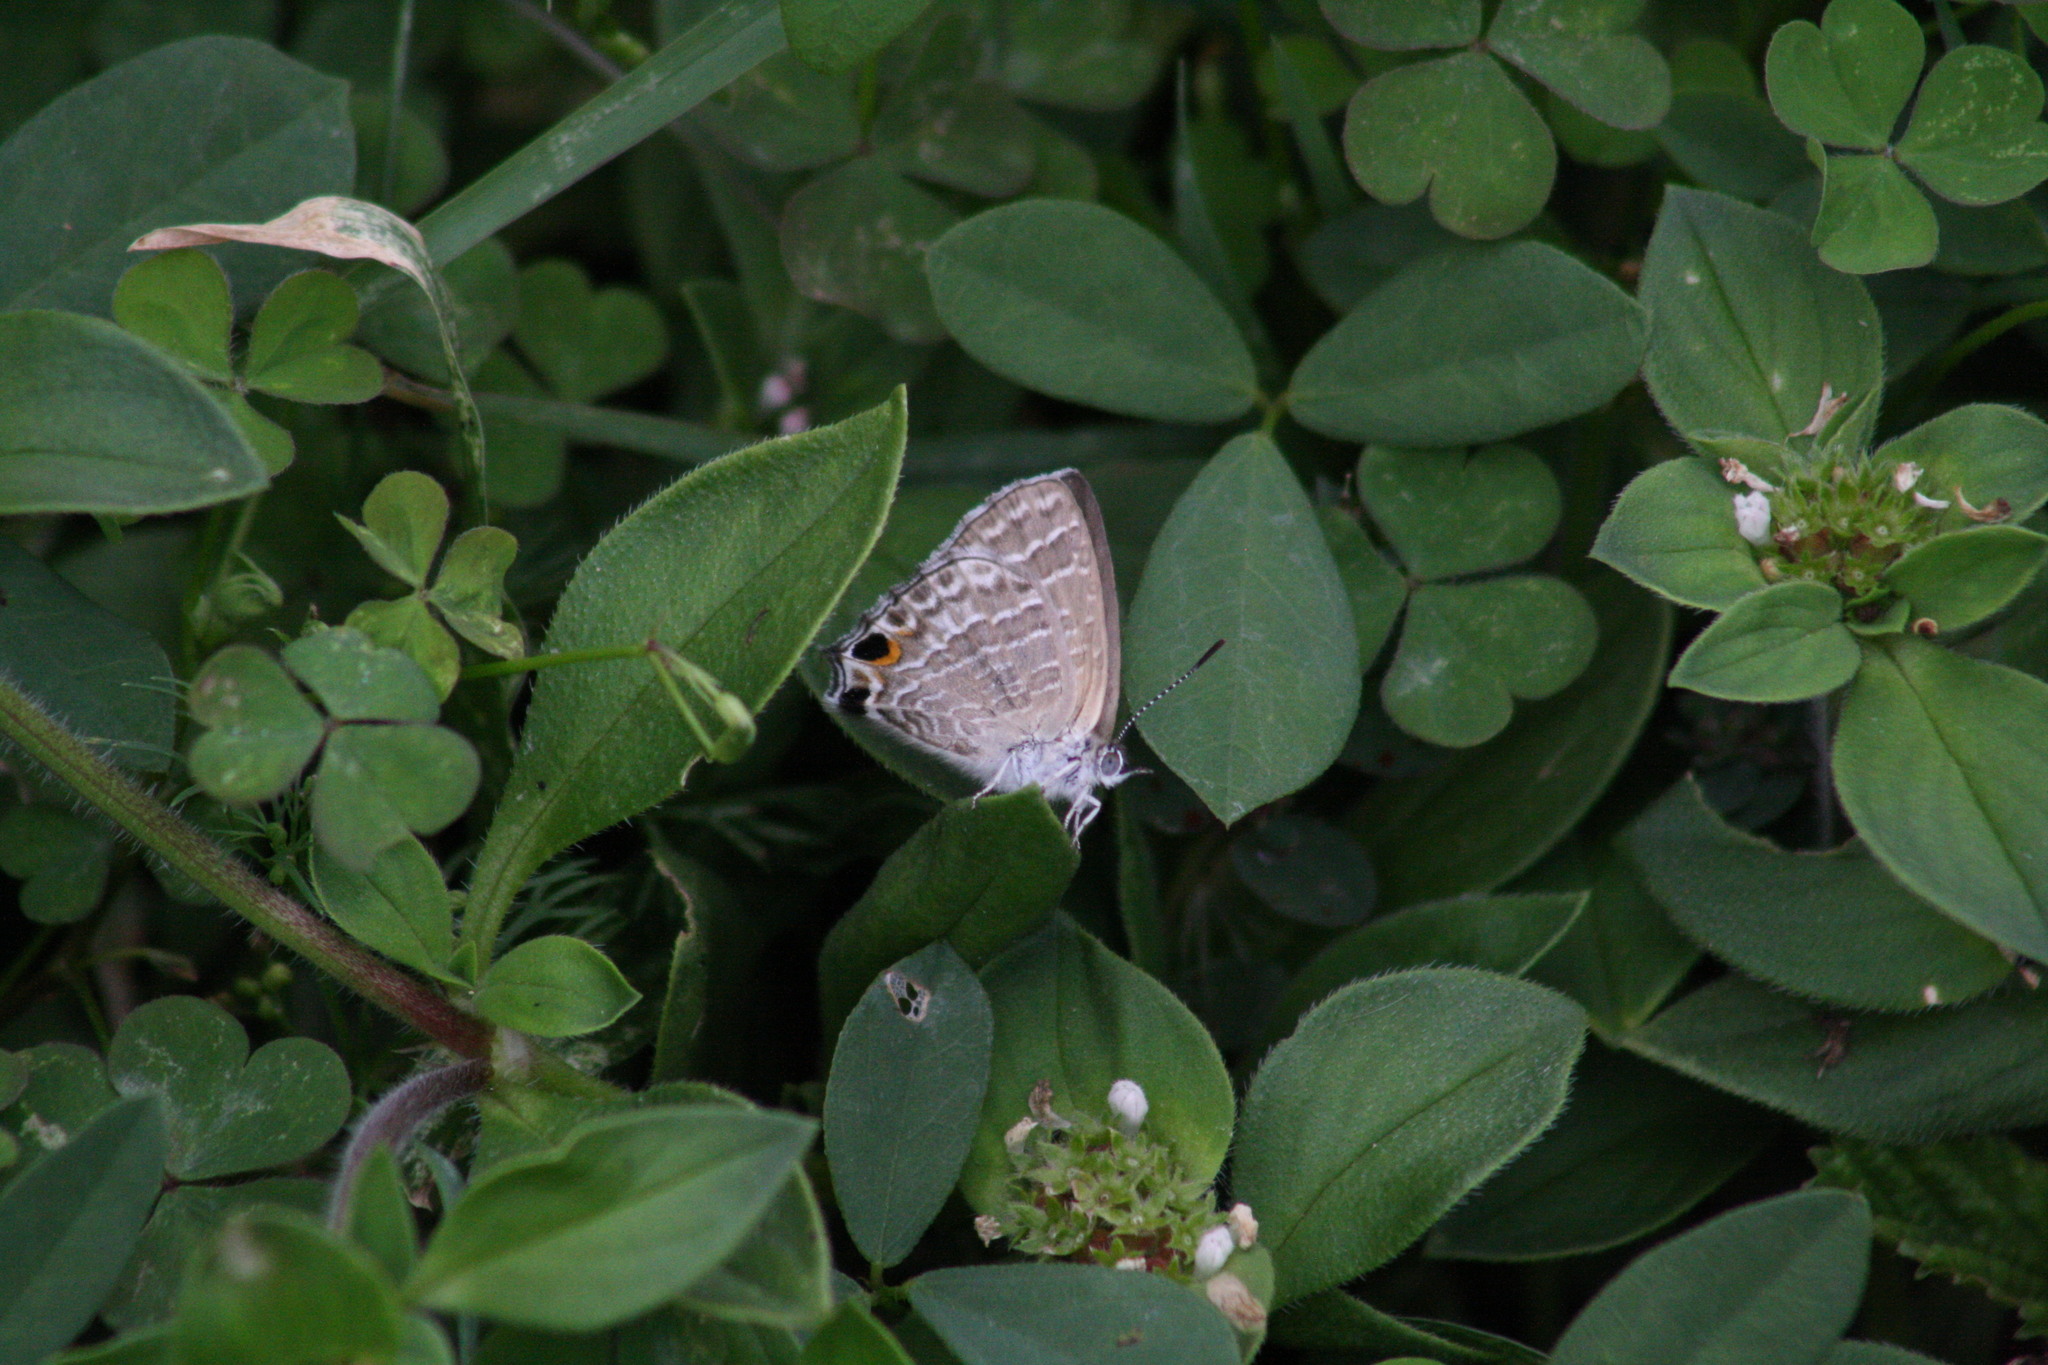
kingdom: Animalia
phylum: Arthropoda
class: Insecta
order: Lepidoptera
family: Lycaenidae
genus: Theclinesthes
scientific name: Theclinesthes onycha
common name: Cycad blue
